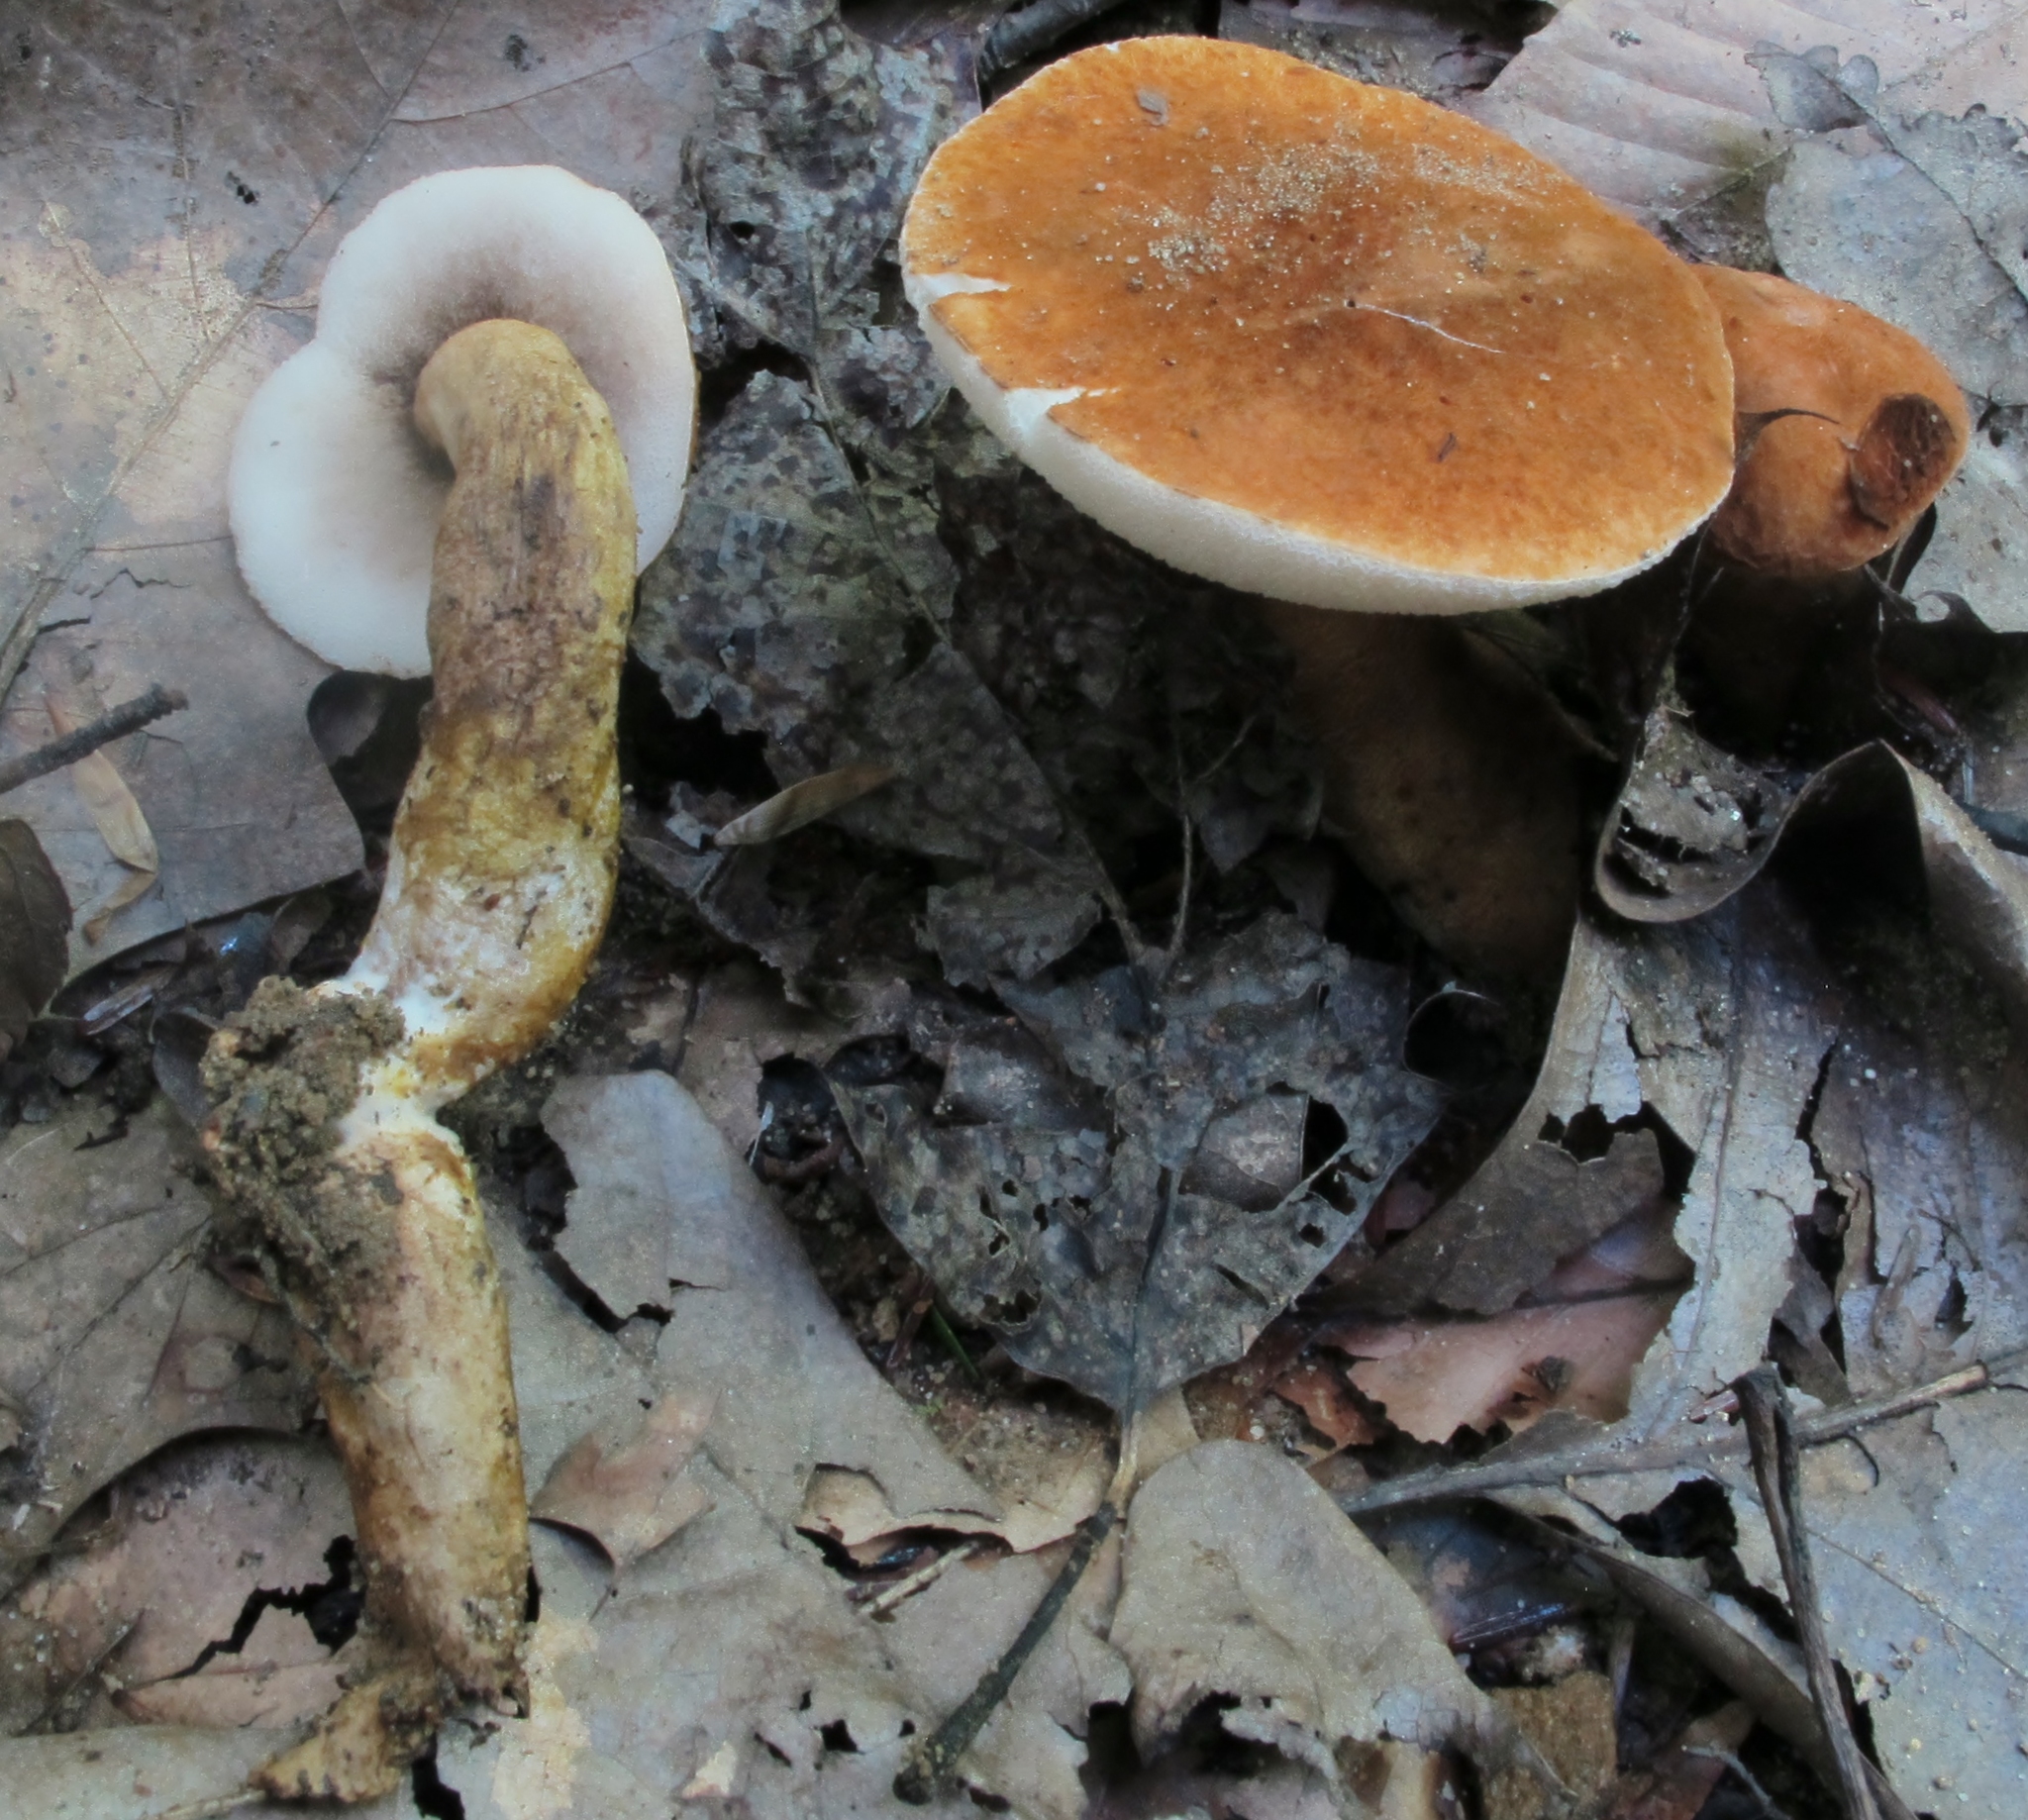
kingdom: Fungi
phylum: Basidiomycota
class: Agaricomycetes
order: Boletales
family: Gyroporaceae
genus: Gyroporus
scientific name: Gyroporus castaneus
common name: Chestnut bolete
